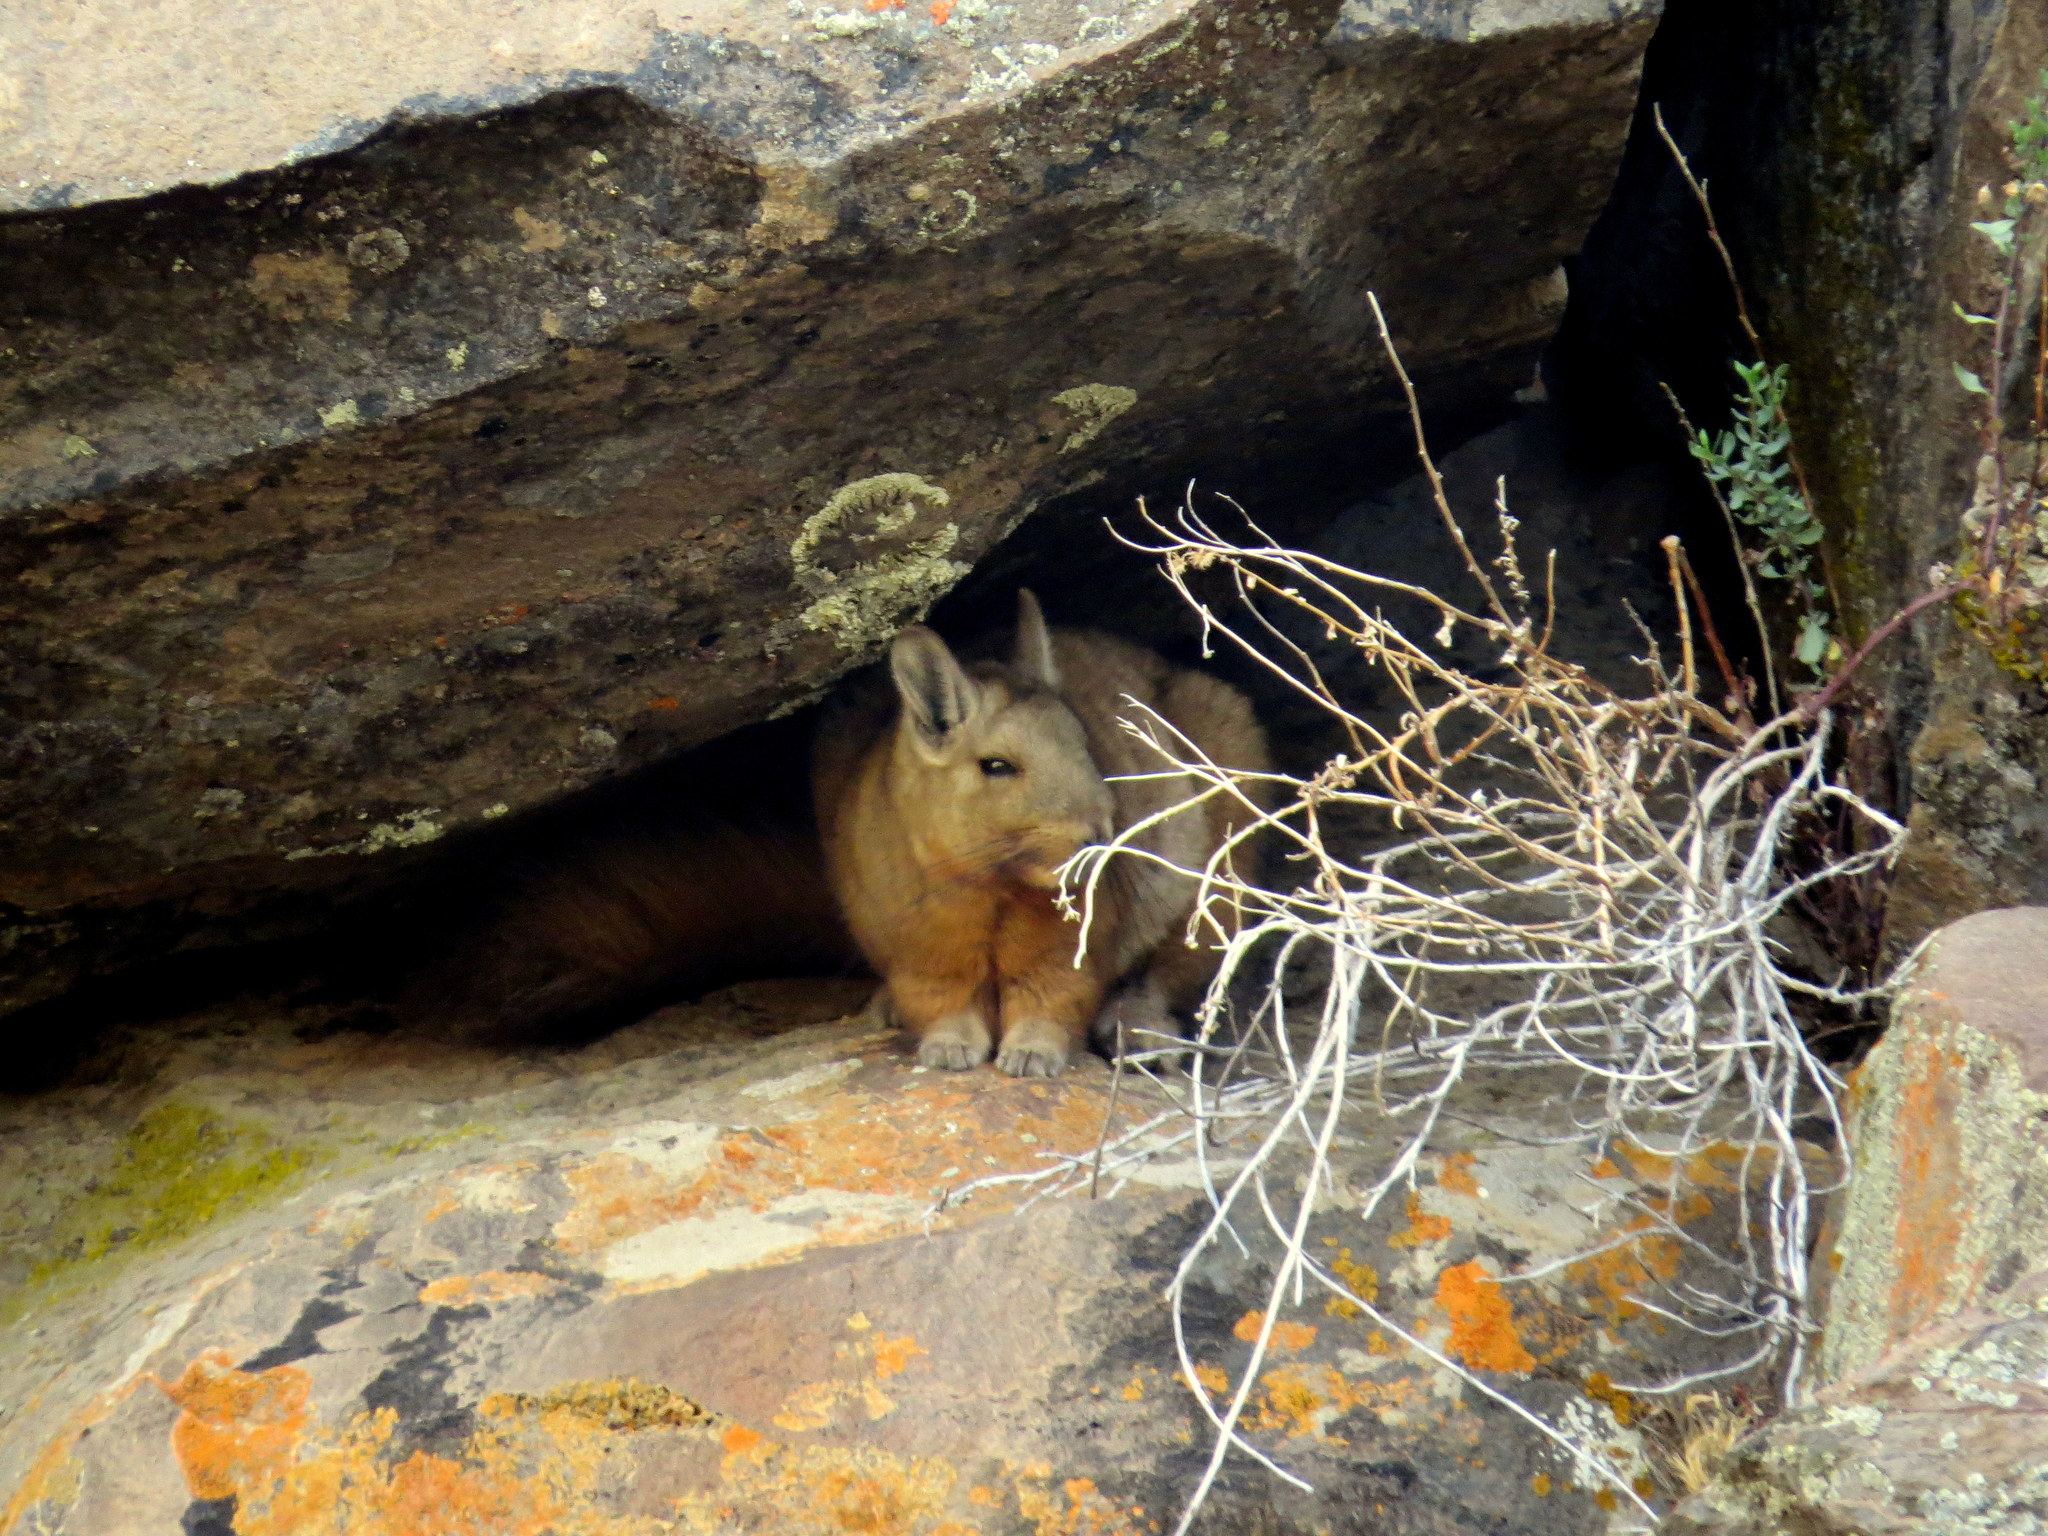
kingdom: Animalia
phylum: Chordata
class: Mammalia
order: Rodentia
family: Chinchillidae
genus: Lagidium
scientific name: Lagidium wolffsohni
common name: Wolffsohn's viscacha
